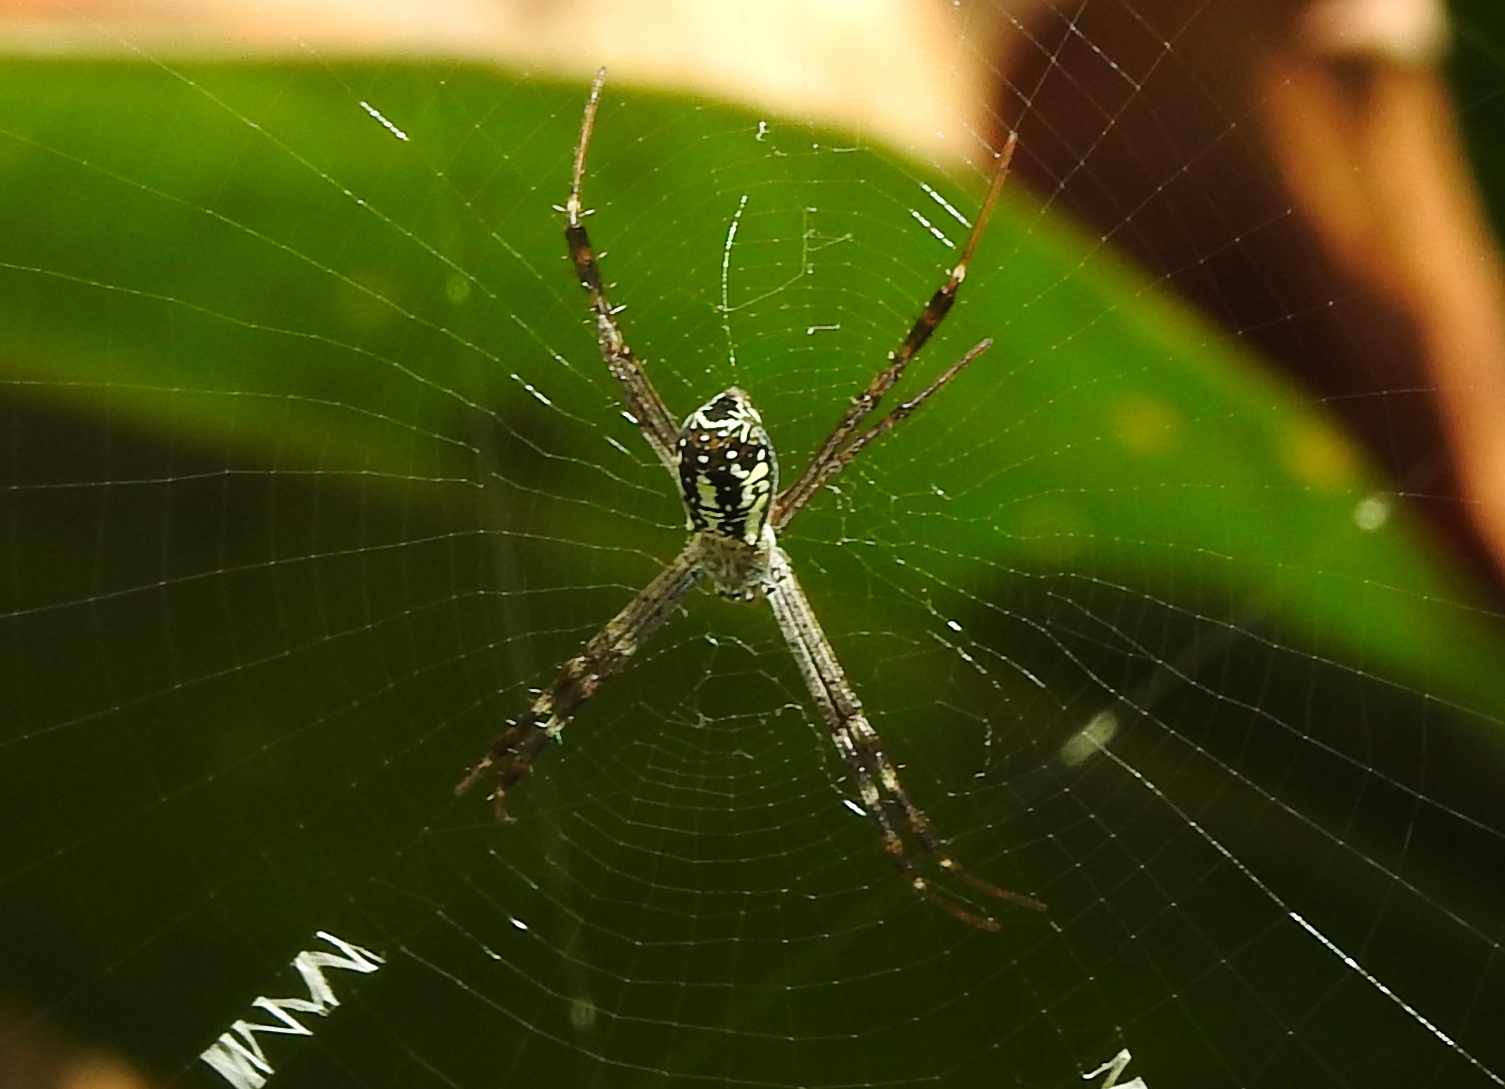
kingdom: Animalia
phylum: Arthropoda
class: Arachnida
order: Araneae
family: Araneidae
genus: Argiope
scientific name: Argiope dang
